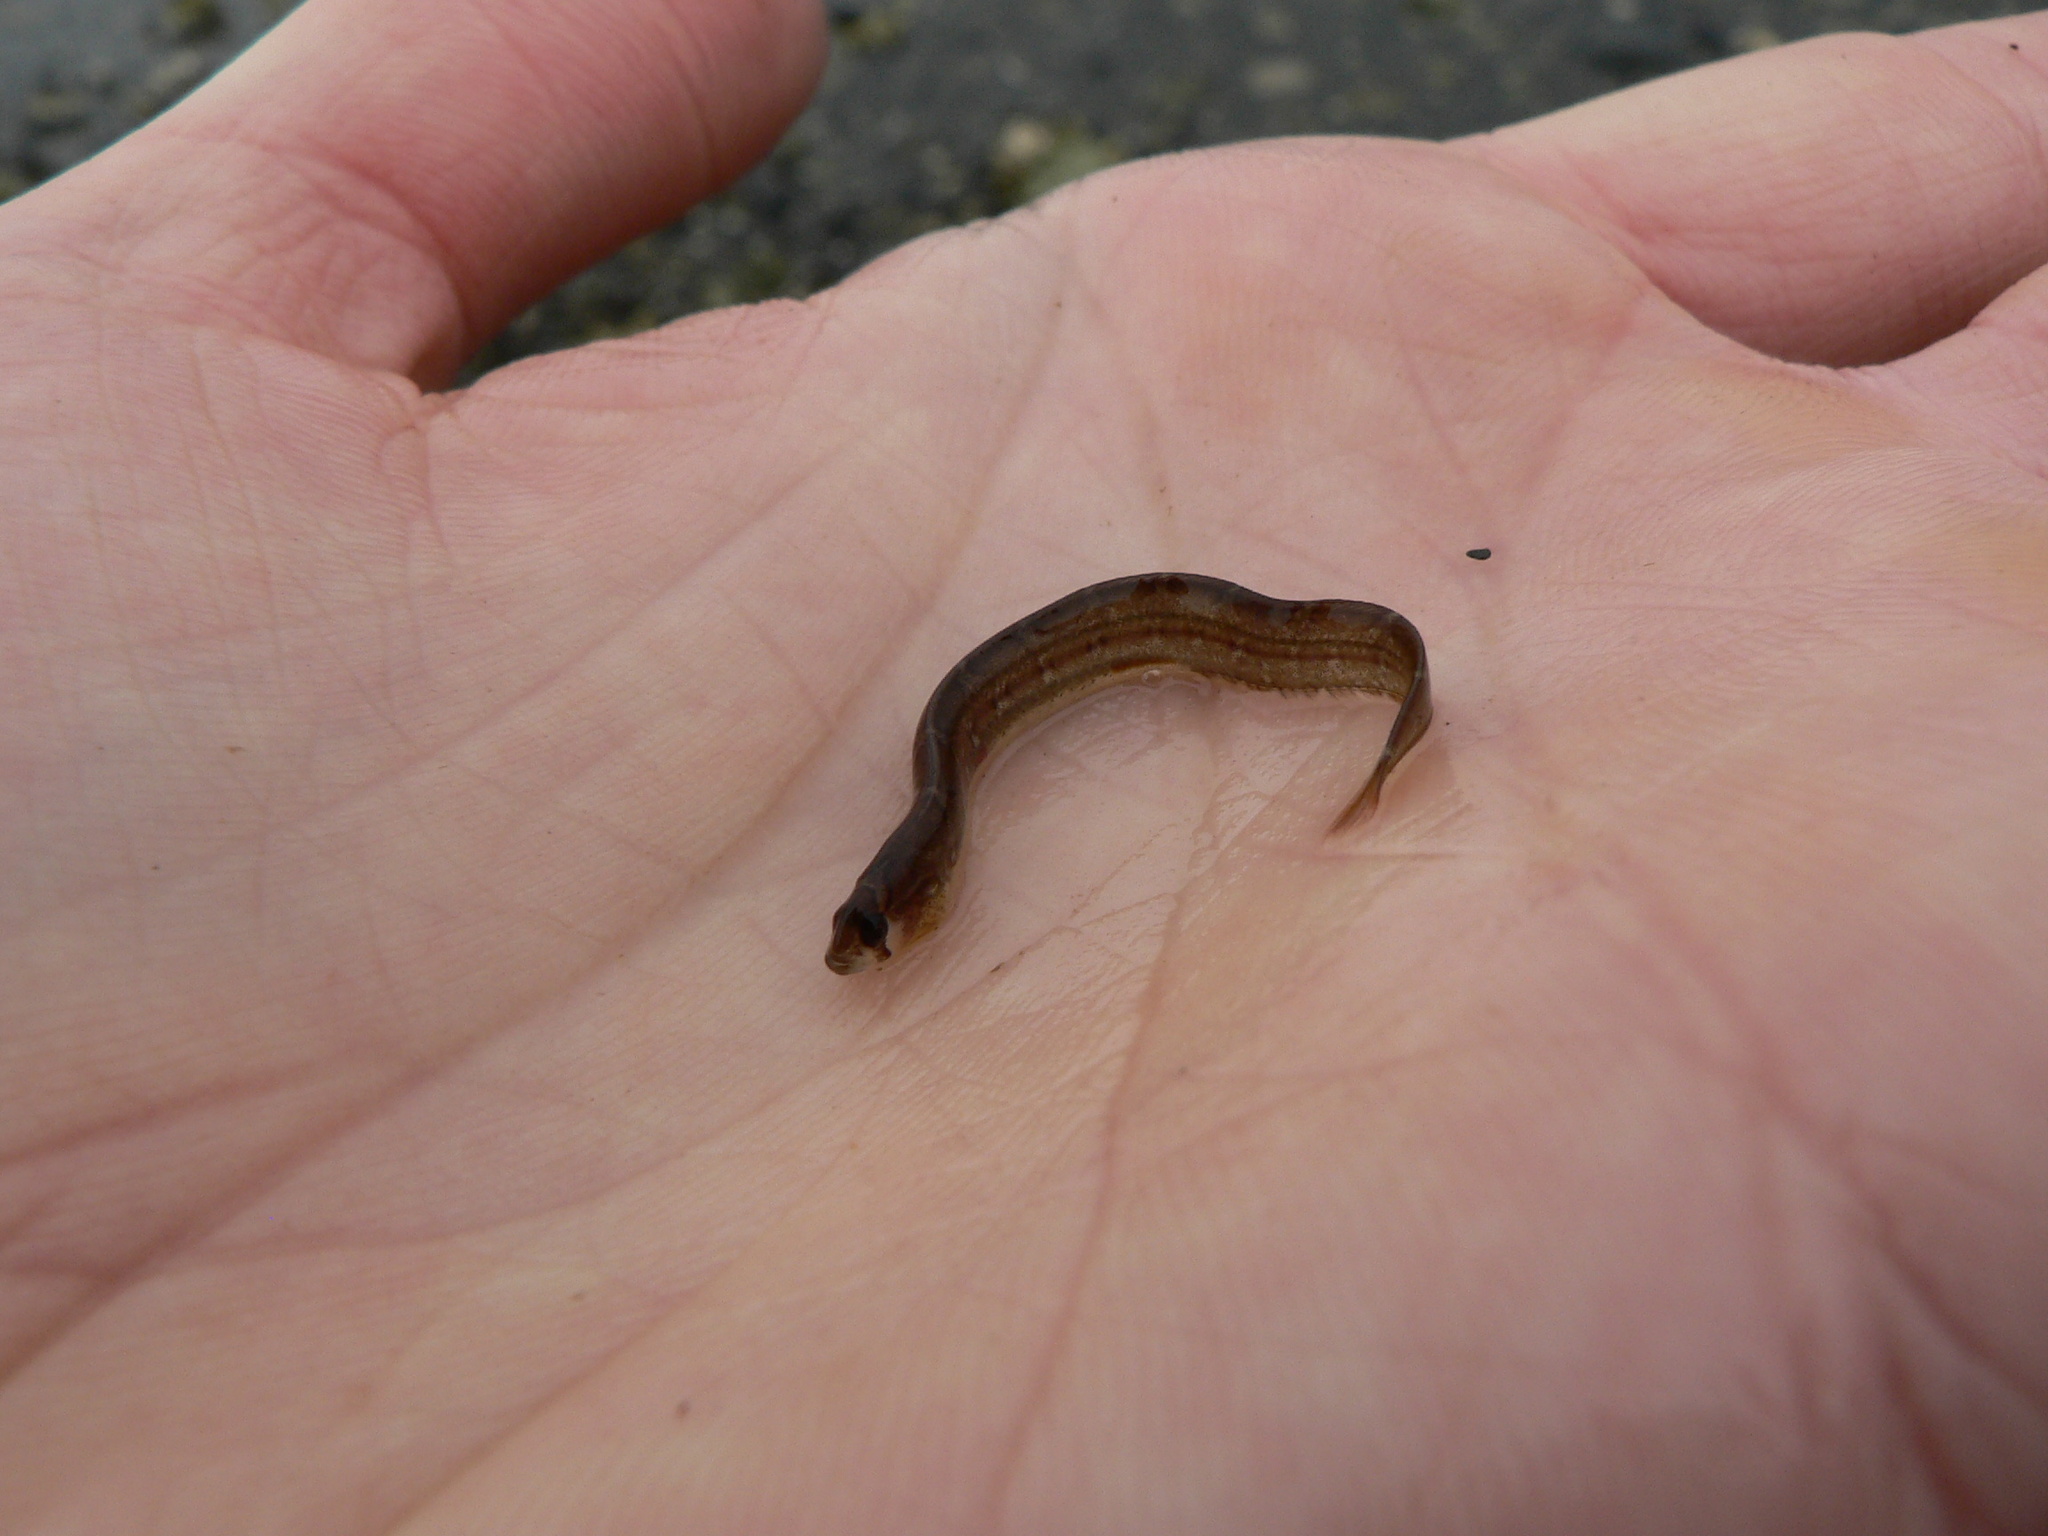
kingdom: Animalia
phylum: Chordata
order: Perciformes
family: Pholidae
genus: Pholis
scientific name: Pholis ornata
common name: Saddleback gunnel
